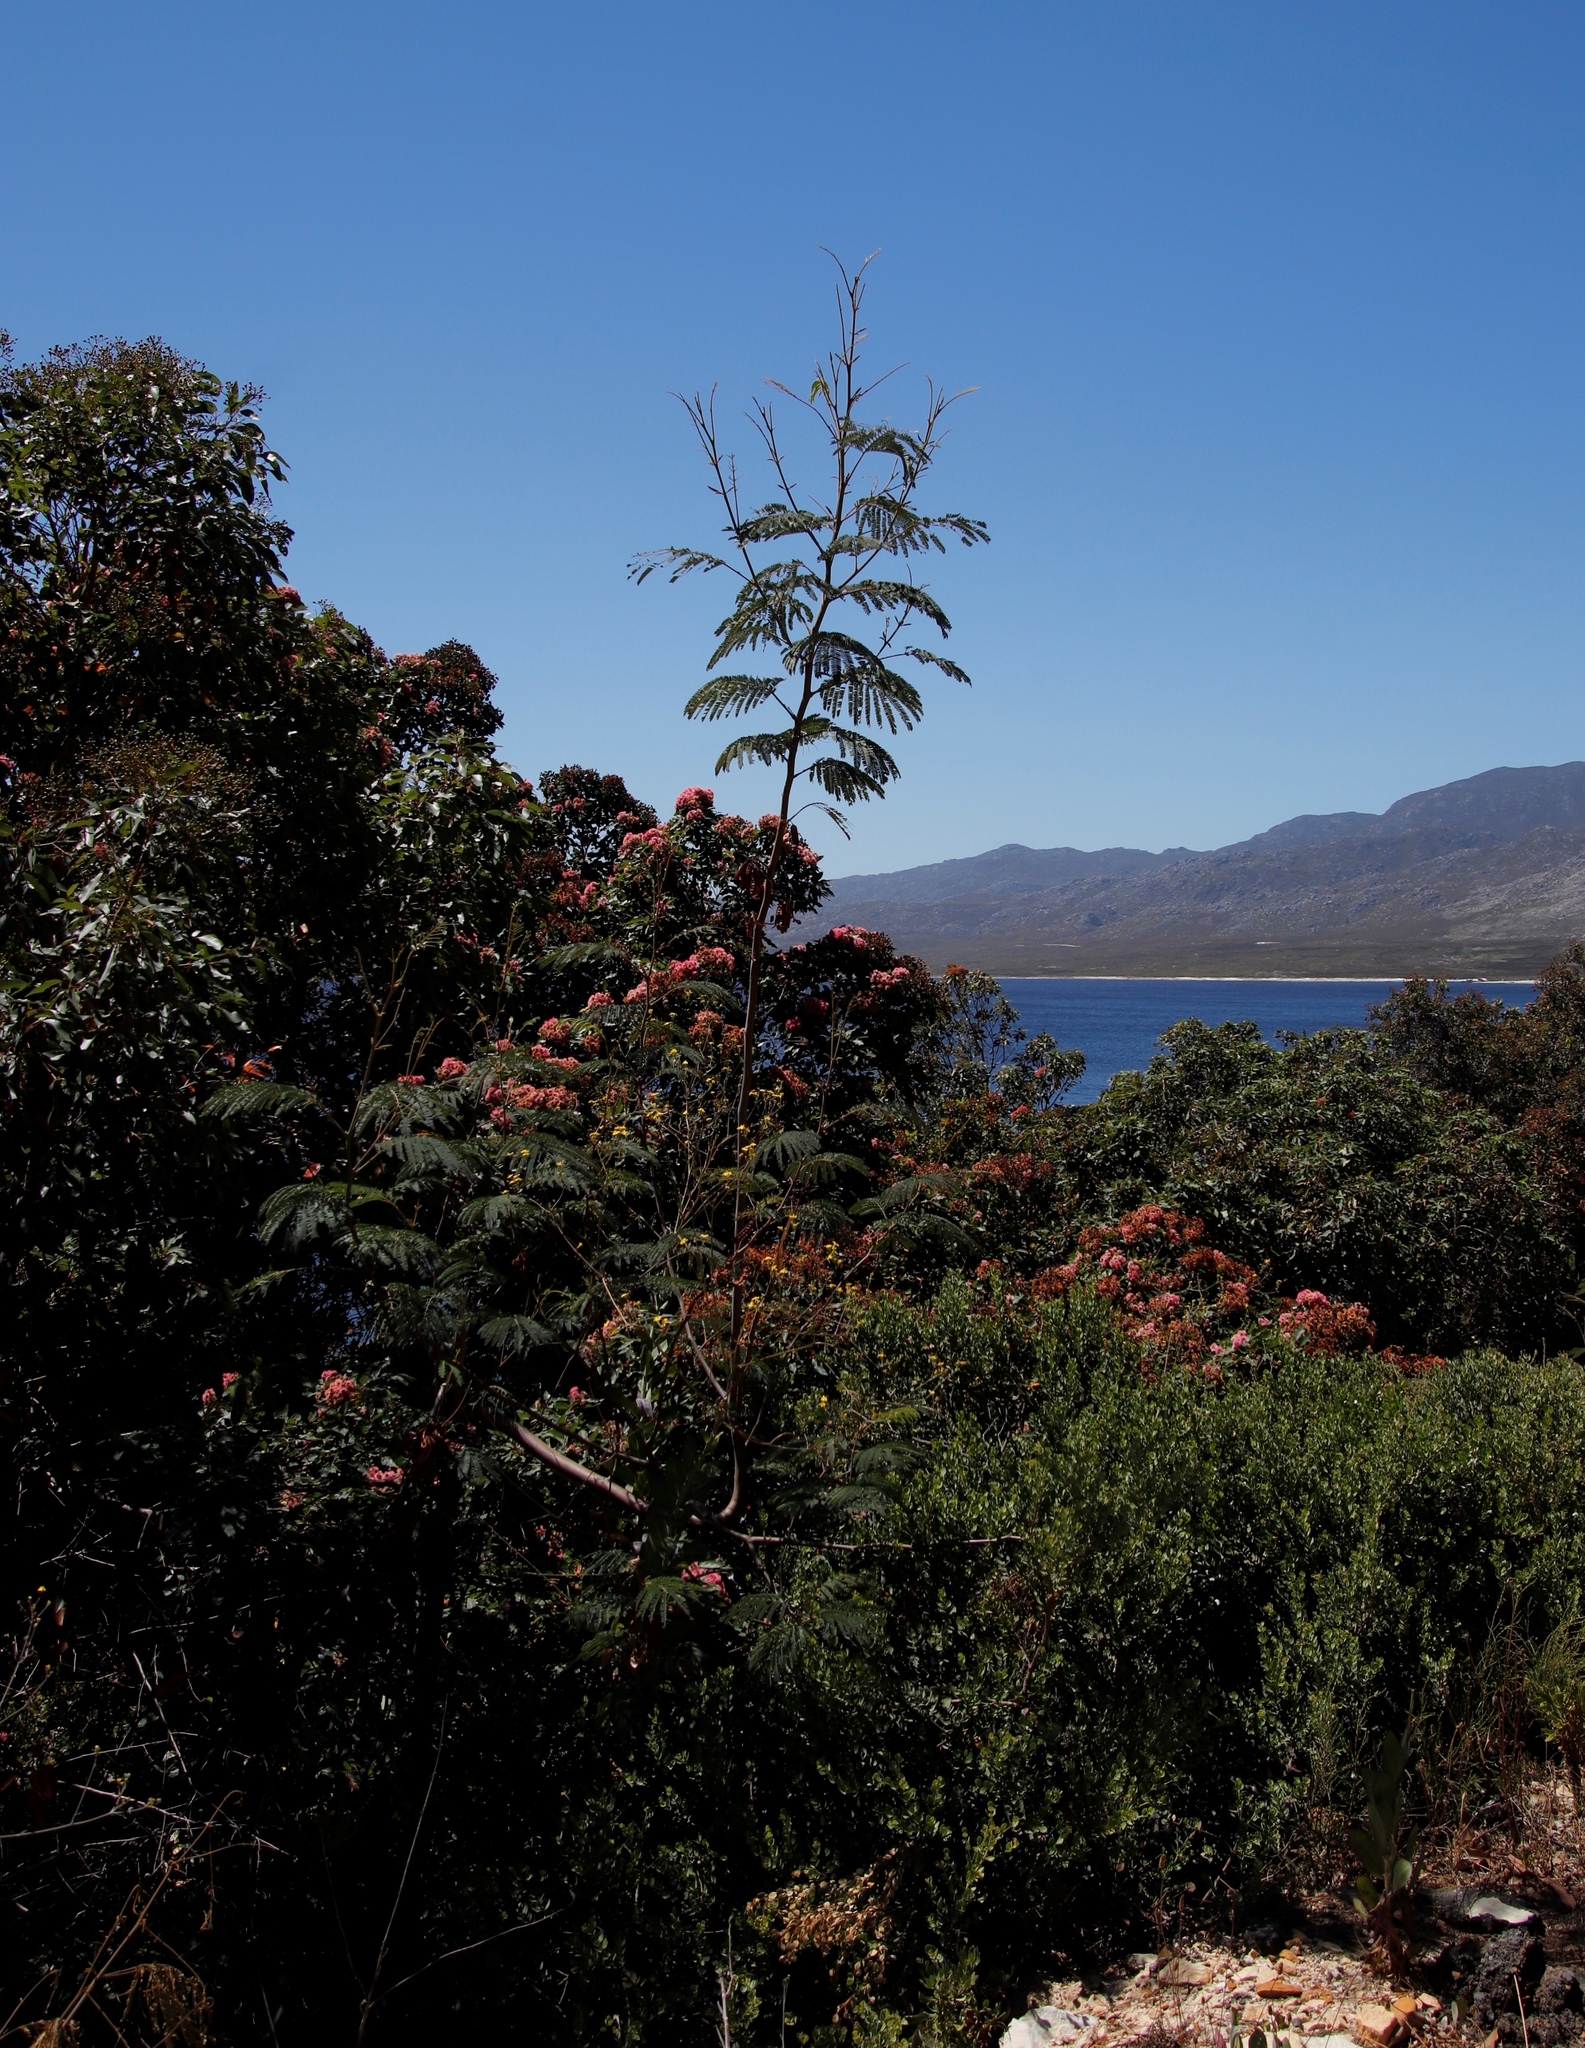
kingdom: Plantae
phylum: Tracheophyta
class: Magnoliopsida
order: Fabales
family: Fabaceae
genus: Paraserianthes
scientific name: Paraserianthes lophantha
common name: Plume albizia
